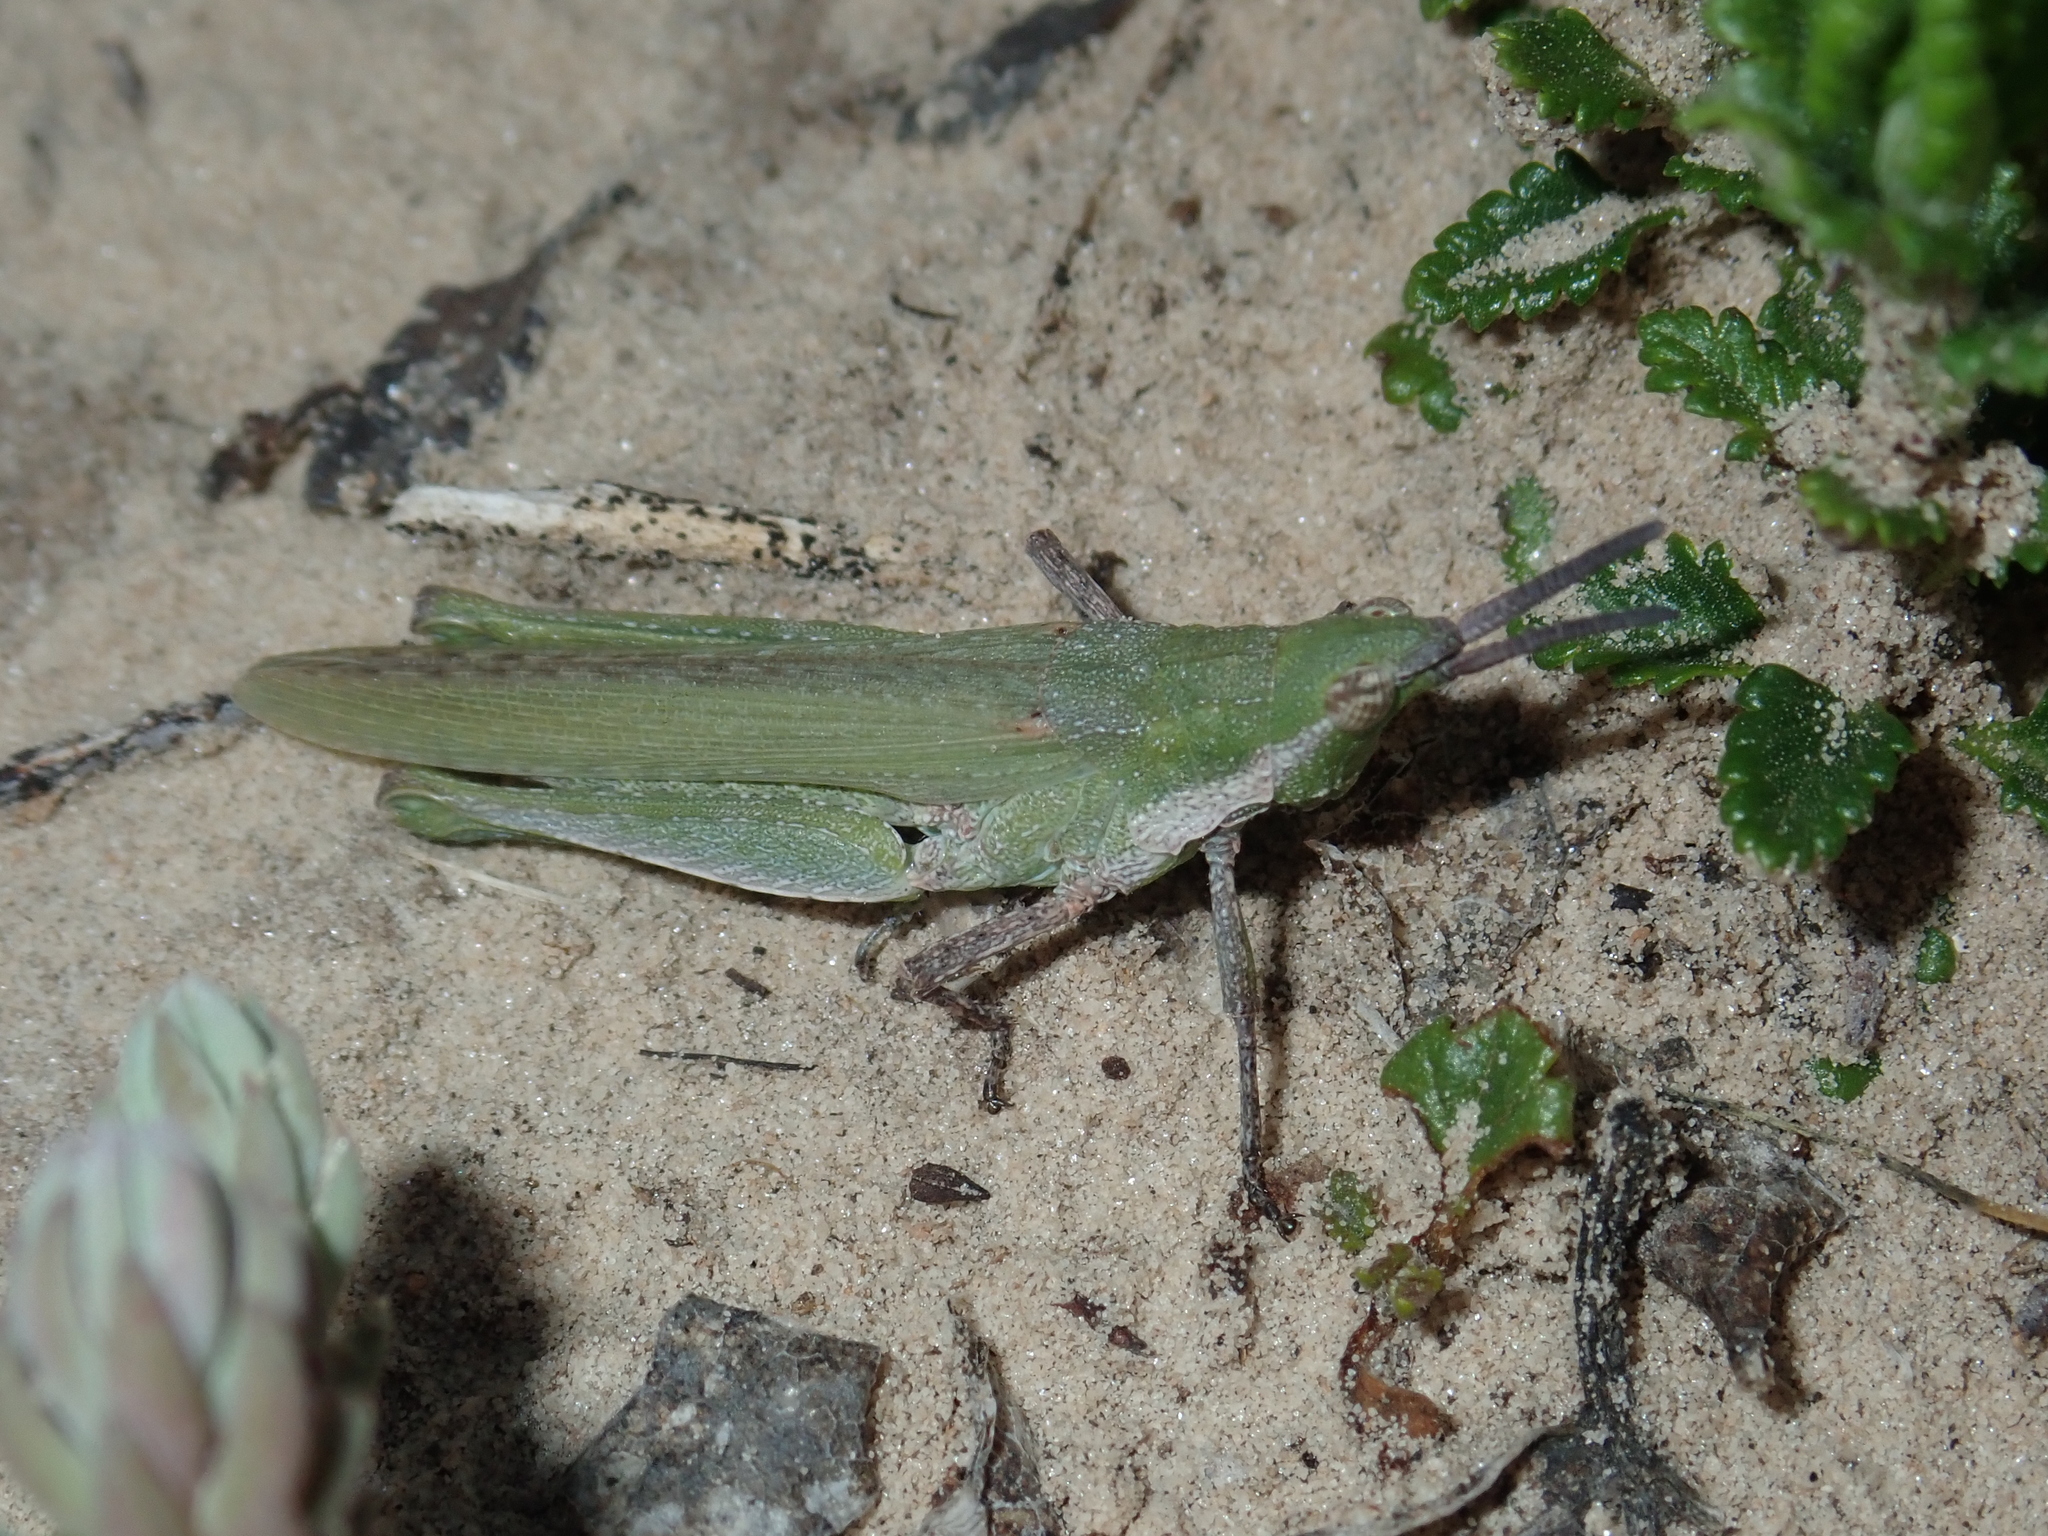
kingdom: Animalia
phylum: Arthropoda
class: Insecta
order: Orthoptera
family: Pyrgomorphidae
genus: Pyrgomorpha
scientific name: Pyrgomorpha conica
